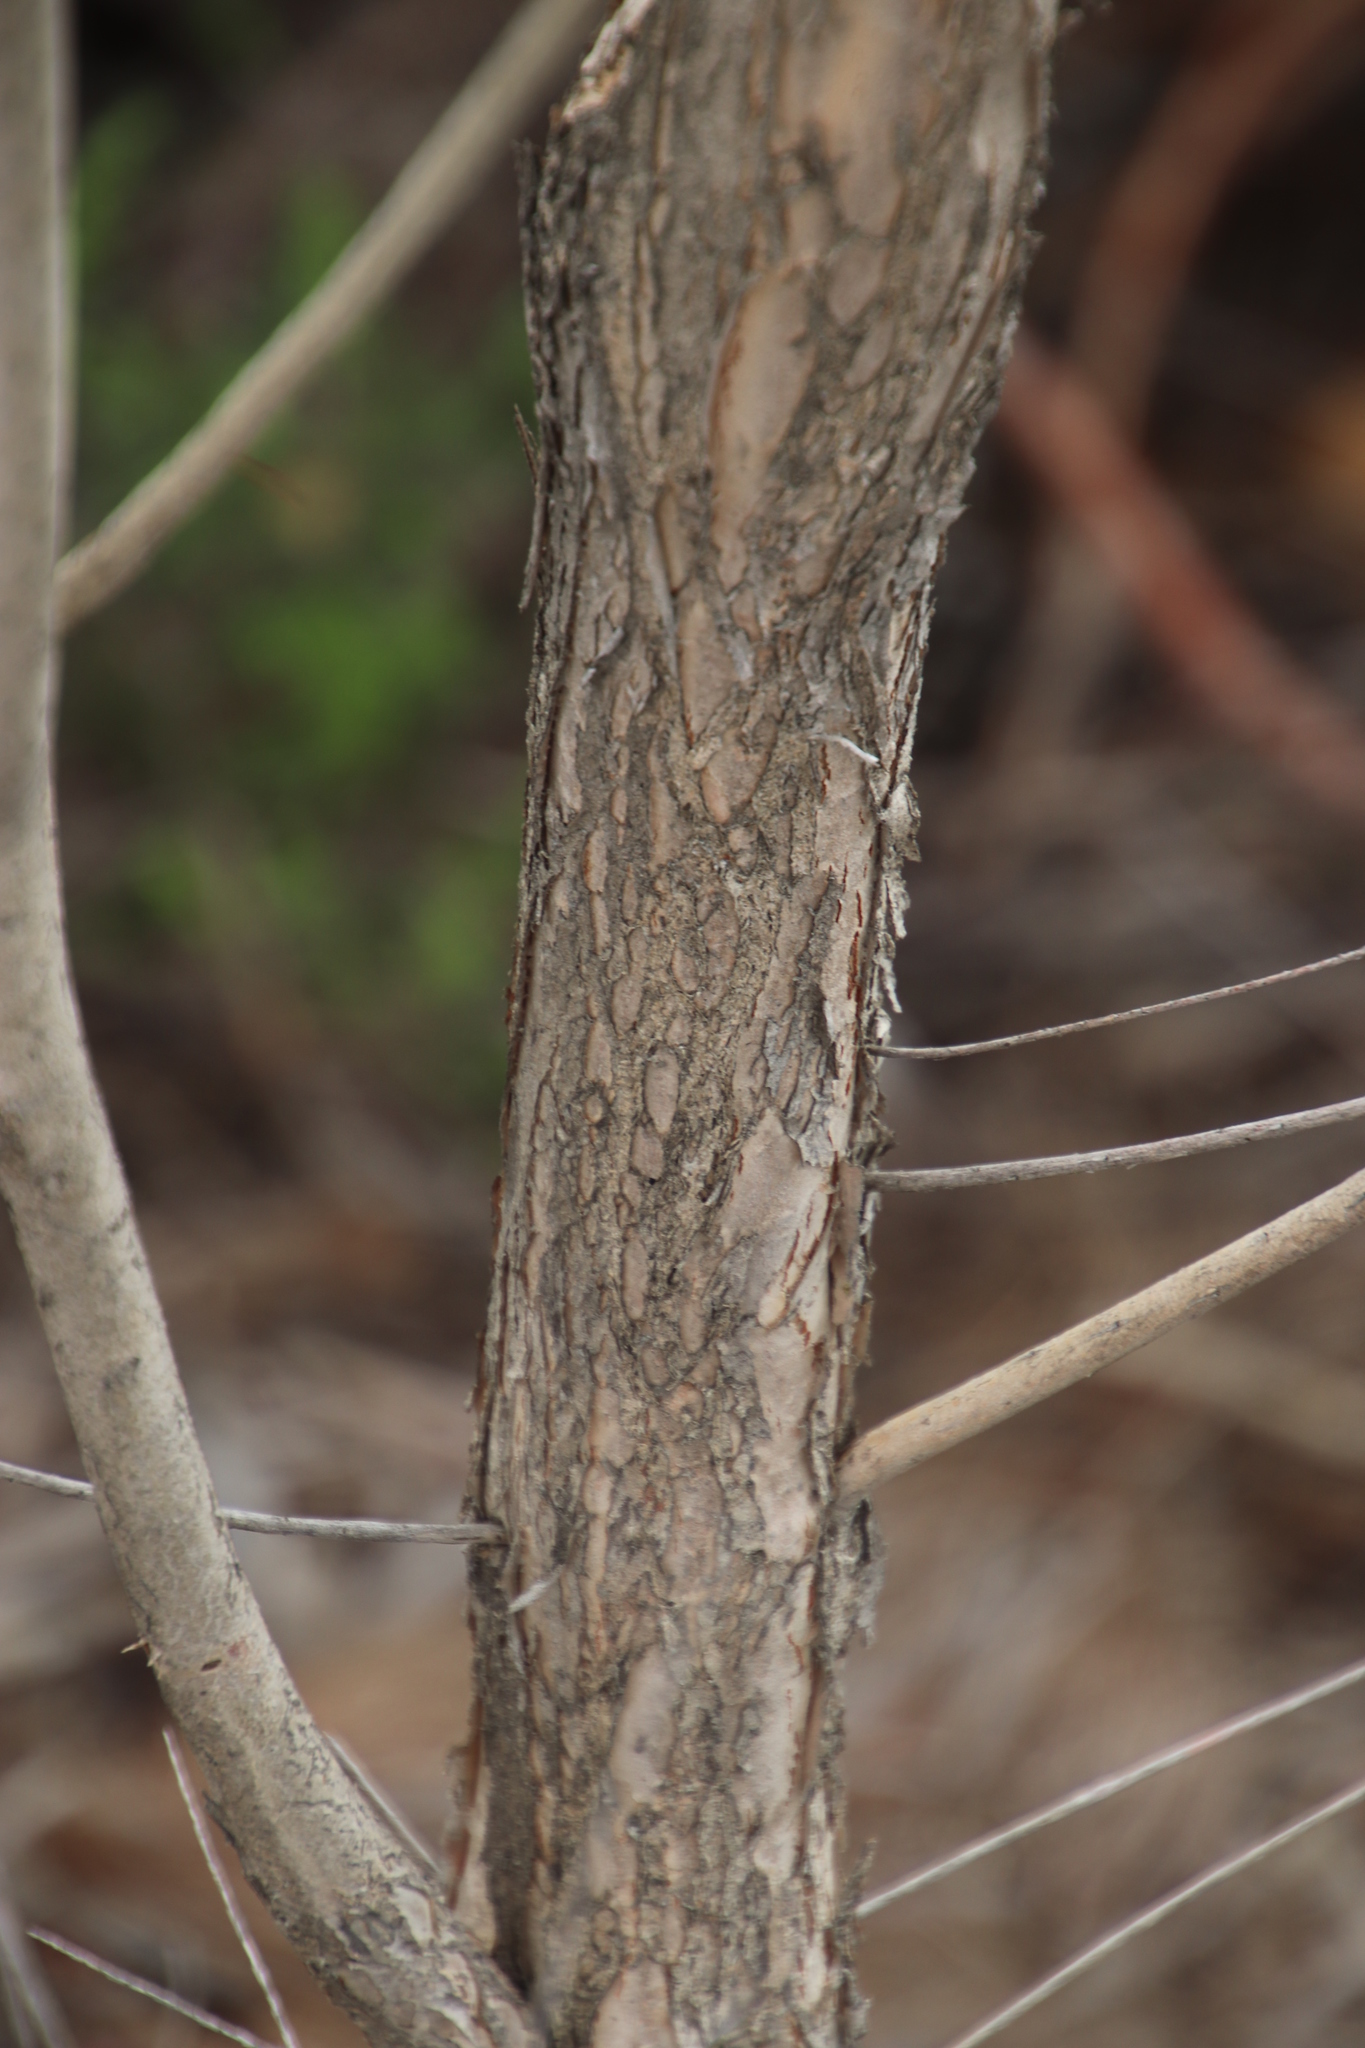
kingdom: Plantae
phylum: Tracheophyta
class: Magnoliopsida
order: Myrtales
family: Myrtaceae
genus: Melaleuca
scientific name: Melaleuca armillaris
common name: Bracelet honey myrtle
